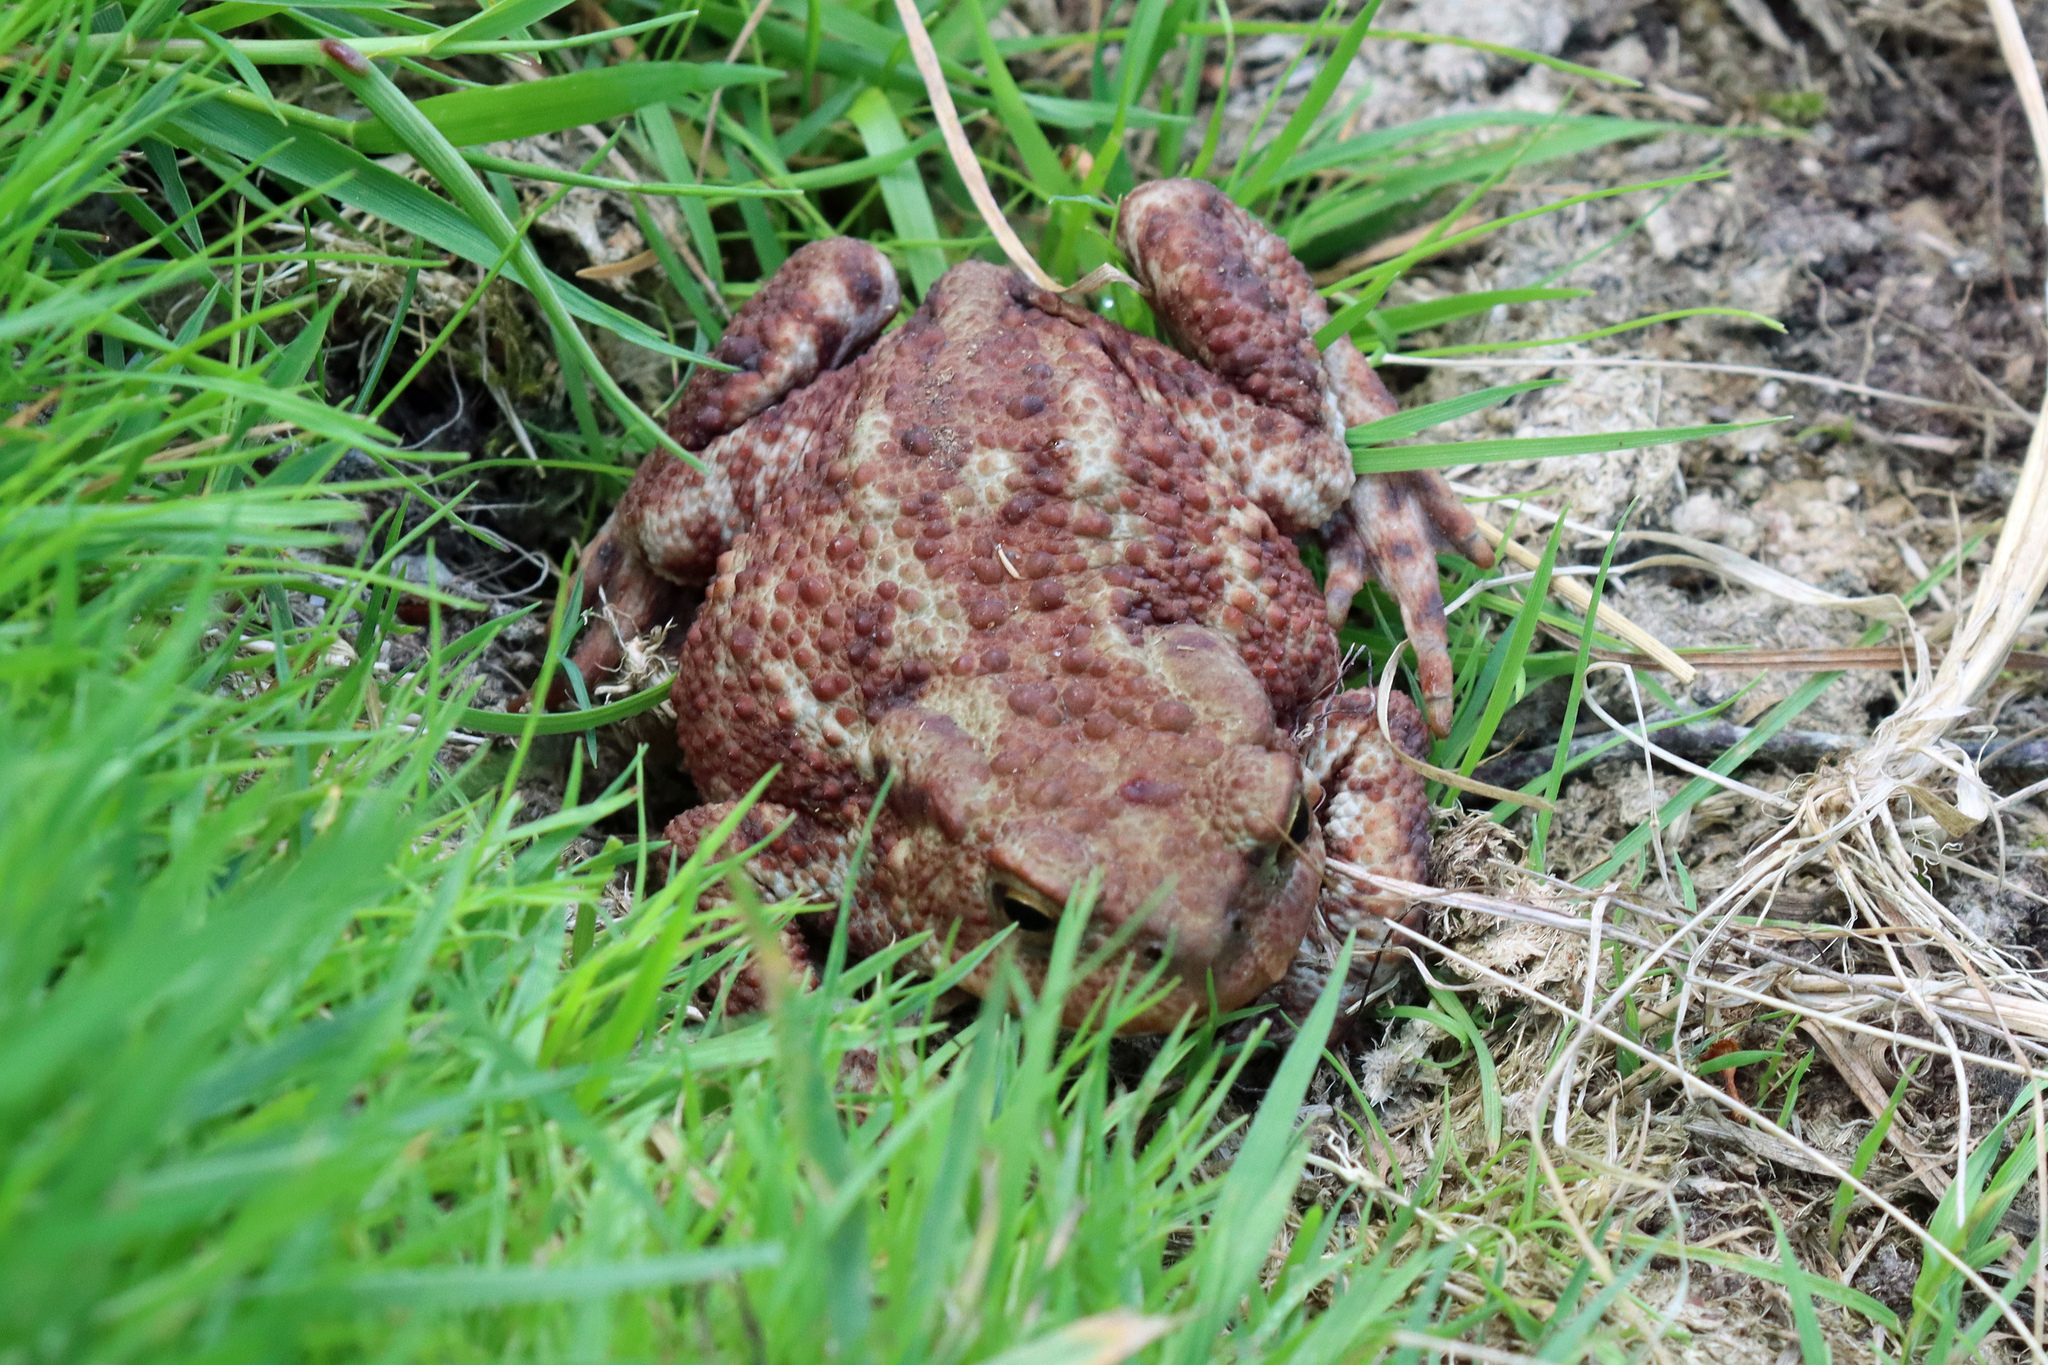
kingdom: Animalia
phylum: Chordata
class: Amphibia
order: Anura
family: Bufonidae
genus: Bufo
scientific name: Bufo bufo
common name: Common toad
